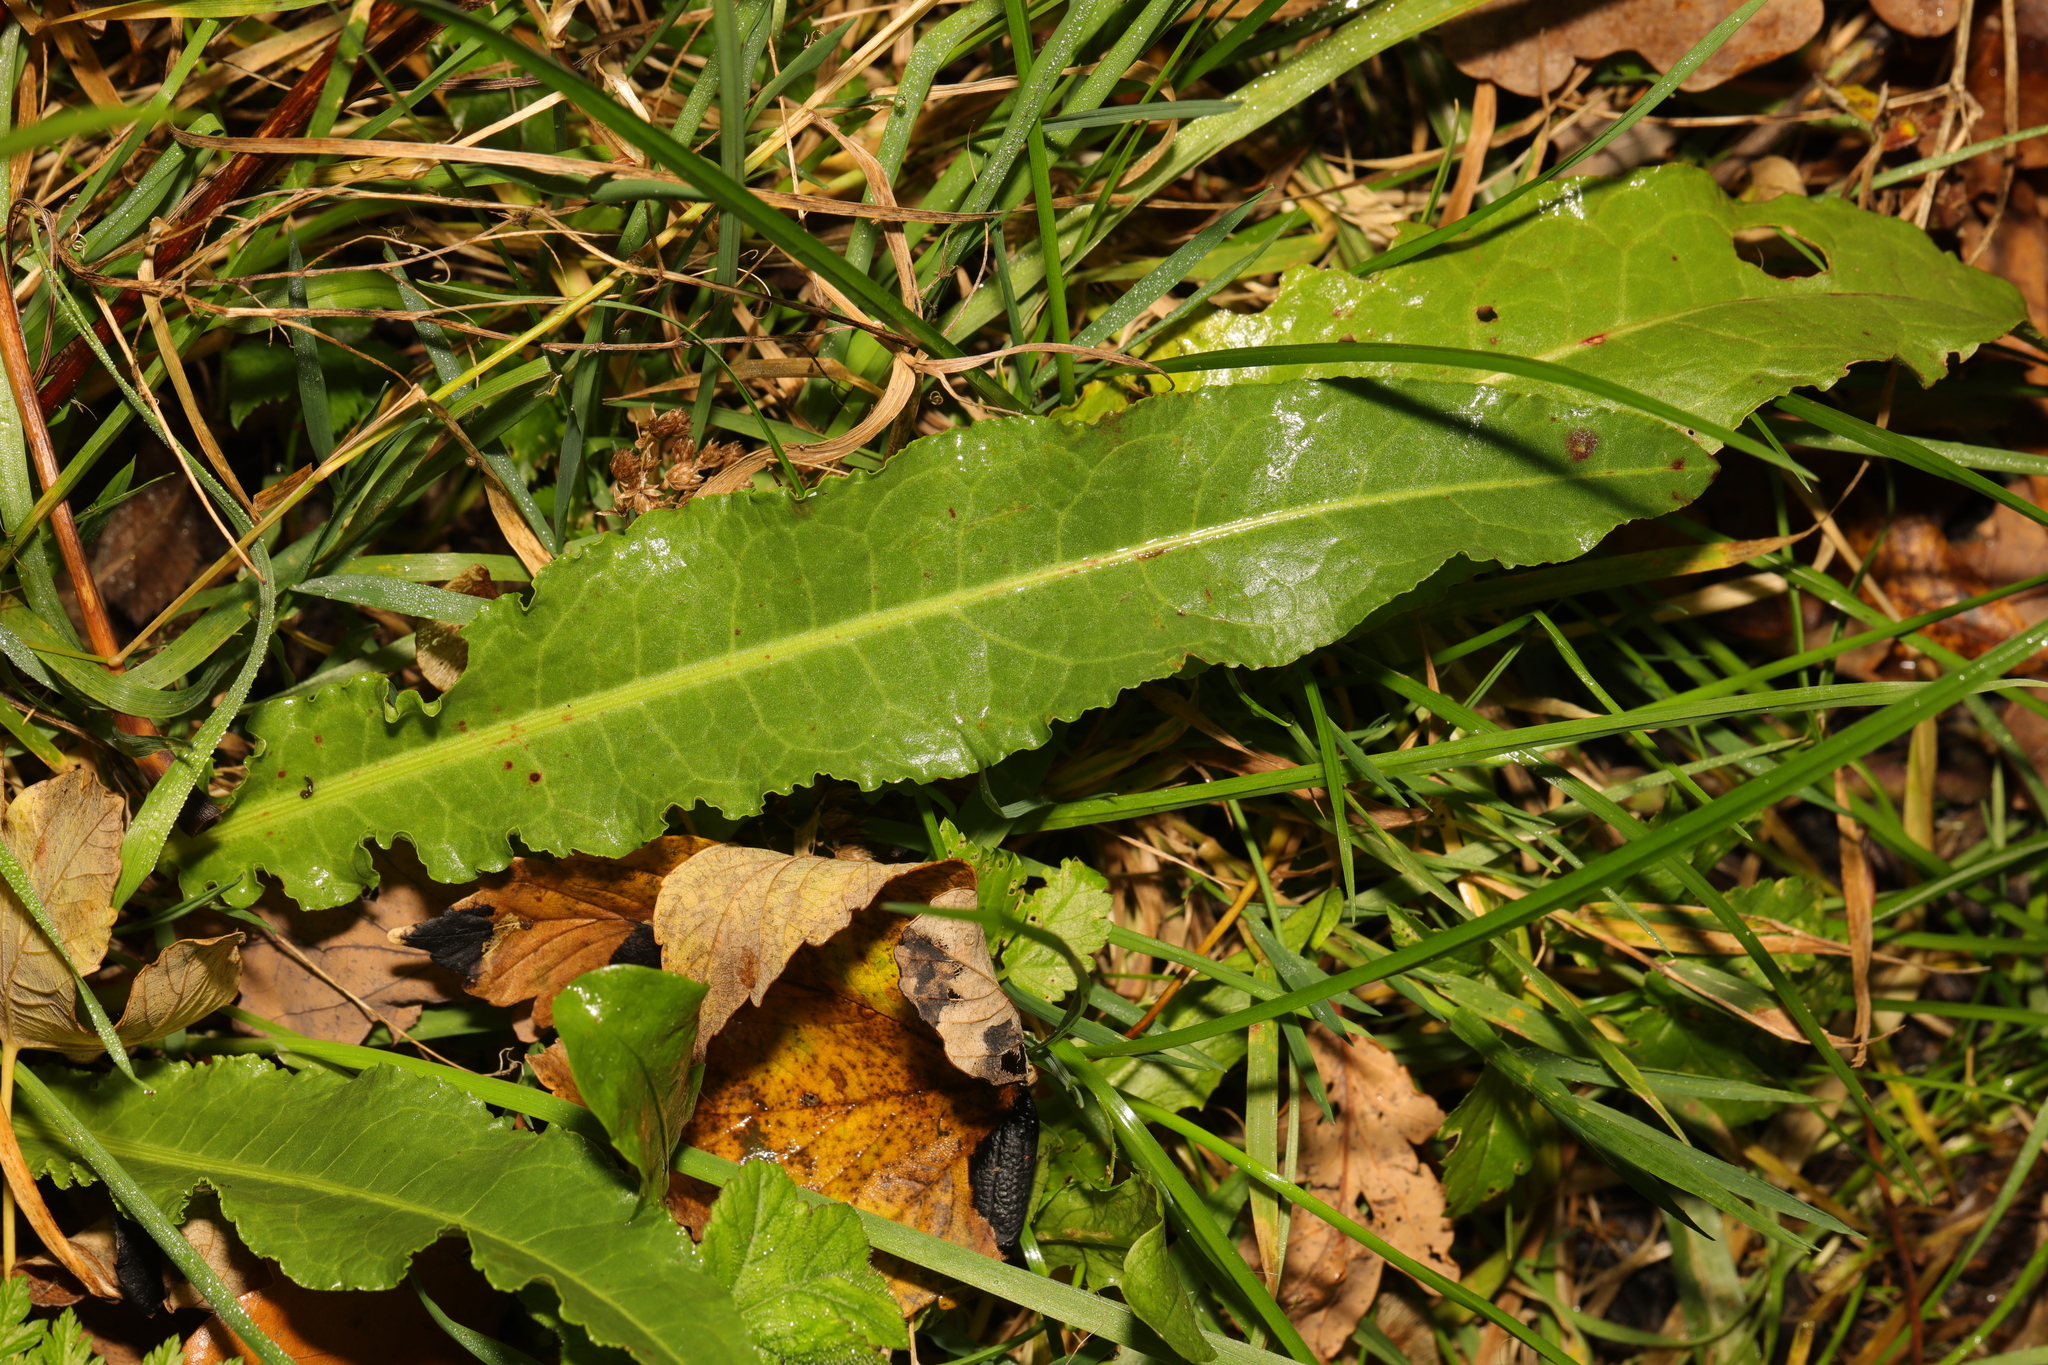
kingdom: Plantae
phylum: Tracheophyta
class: Magnoliopsida
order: Caryophyllales
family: Polygonaceae
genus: Rumex
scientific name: Rumex crispus
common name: Curled dock
